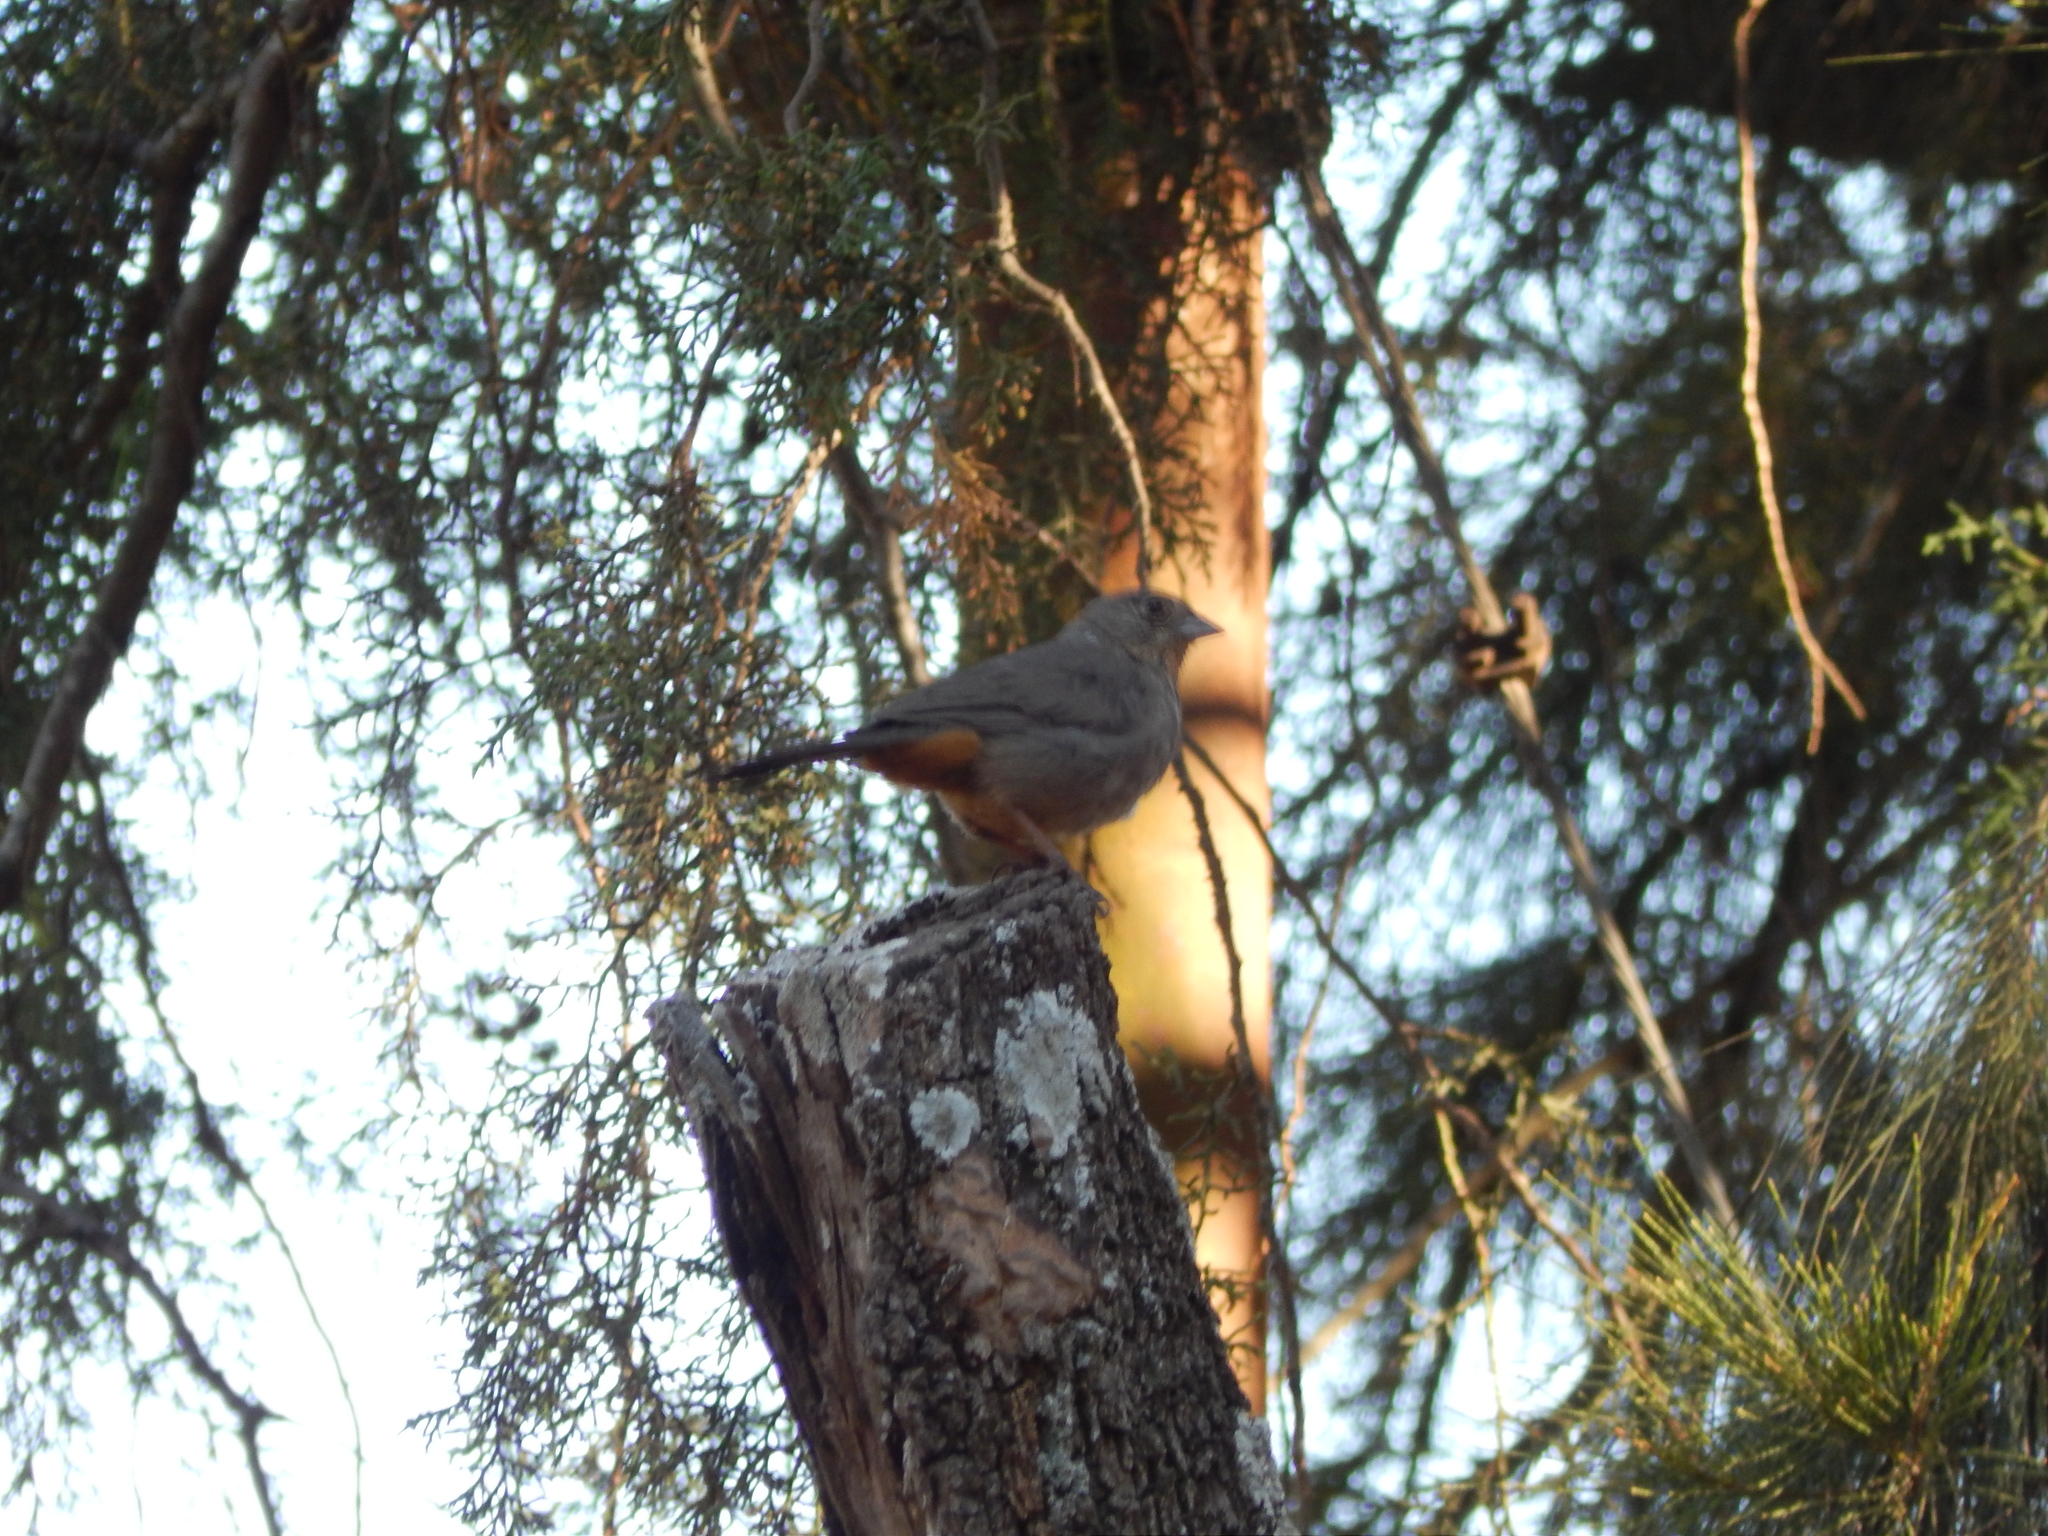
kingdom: Animalia
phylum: Chordata
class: Aves
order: Passeriformes
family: Passerellidae
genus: Melozone
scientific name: Melozone fusca
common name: Canyon towhee
